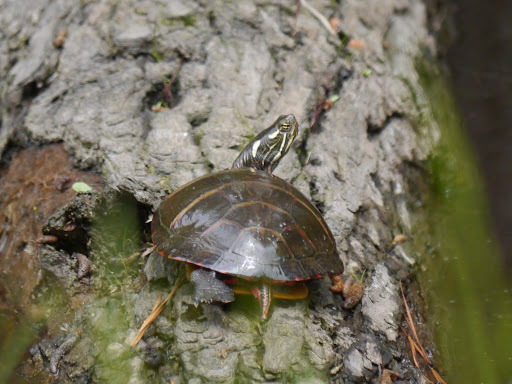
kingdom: Animalia
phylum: Chordata
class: Testudines
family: Emydidae
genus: Chrysemys
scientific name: Chrysemys picta
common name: Painted turtle
